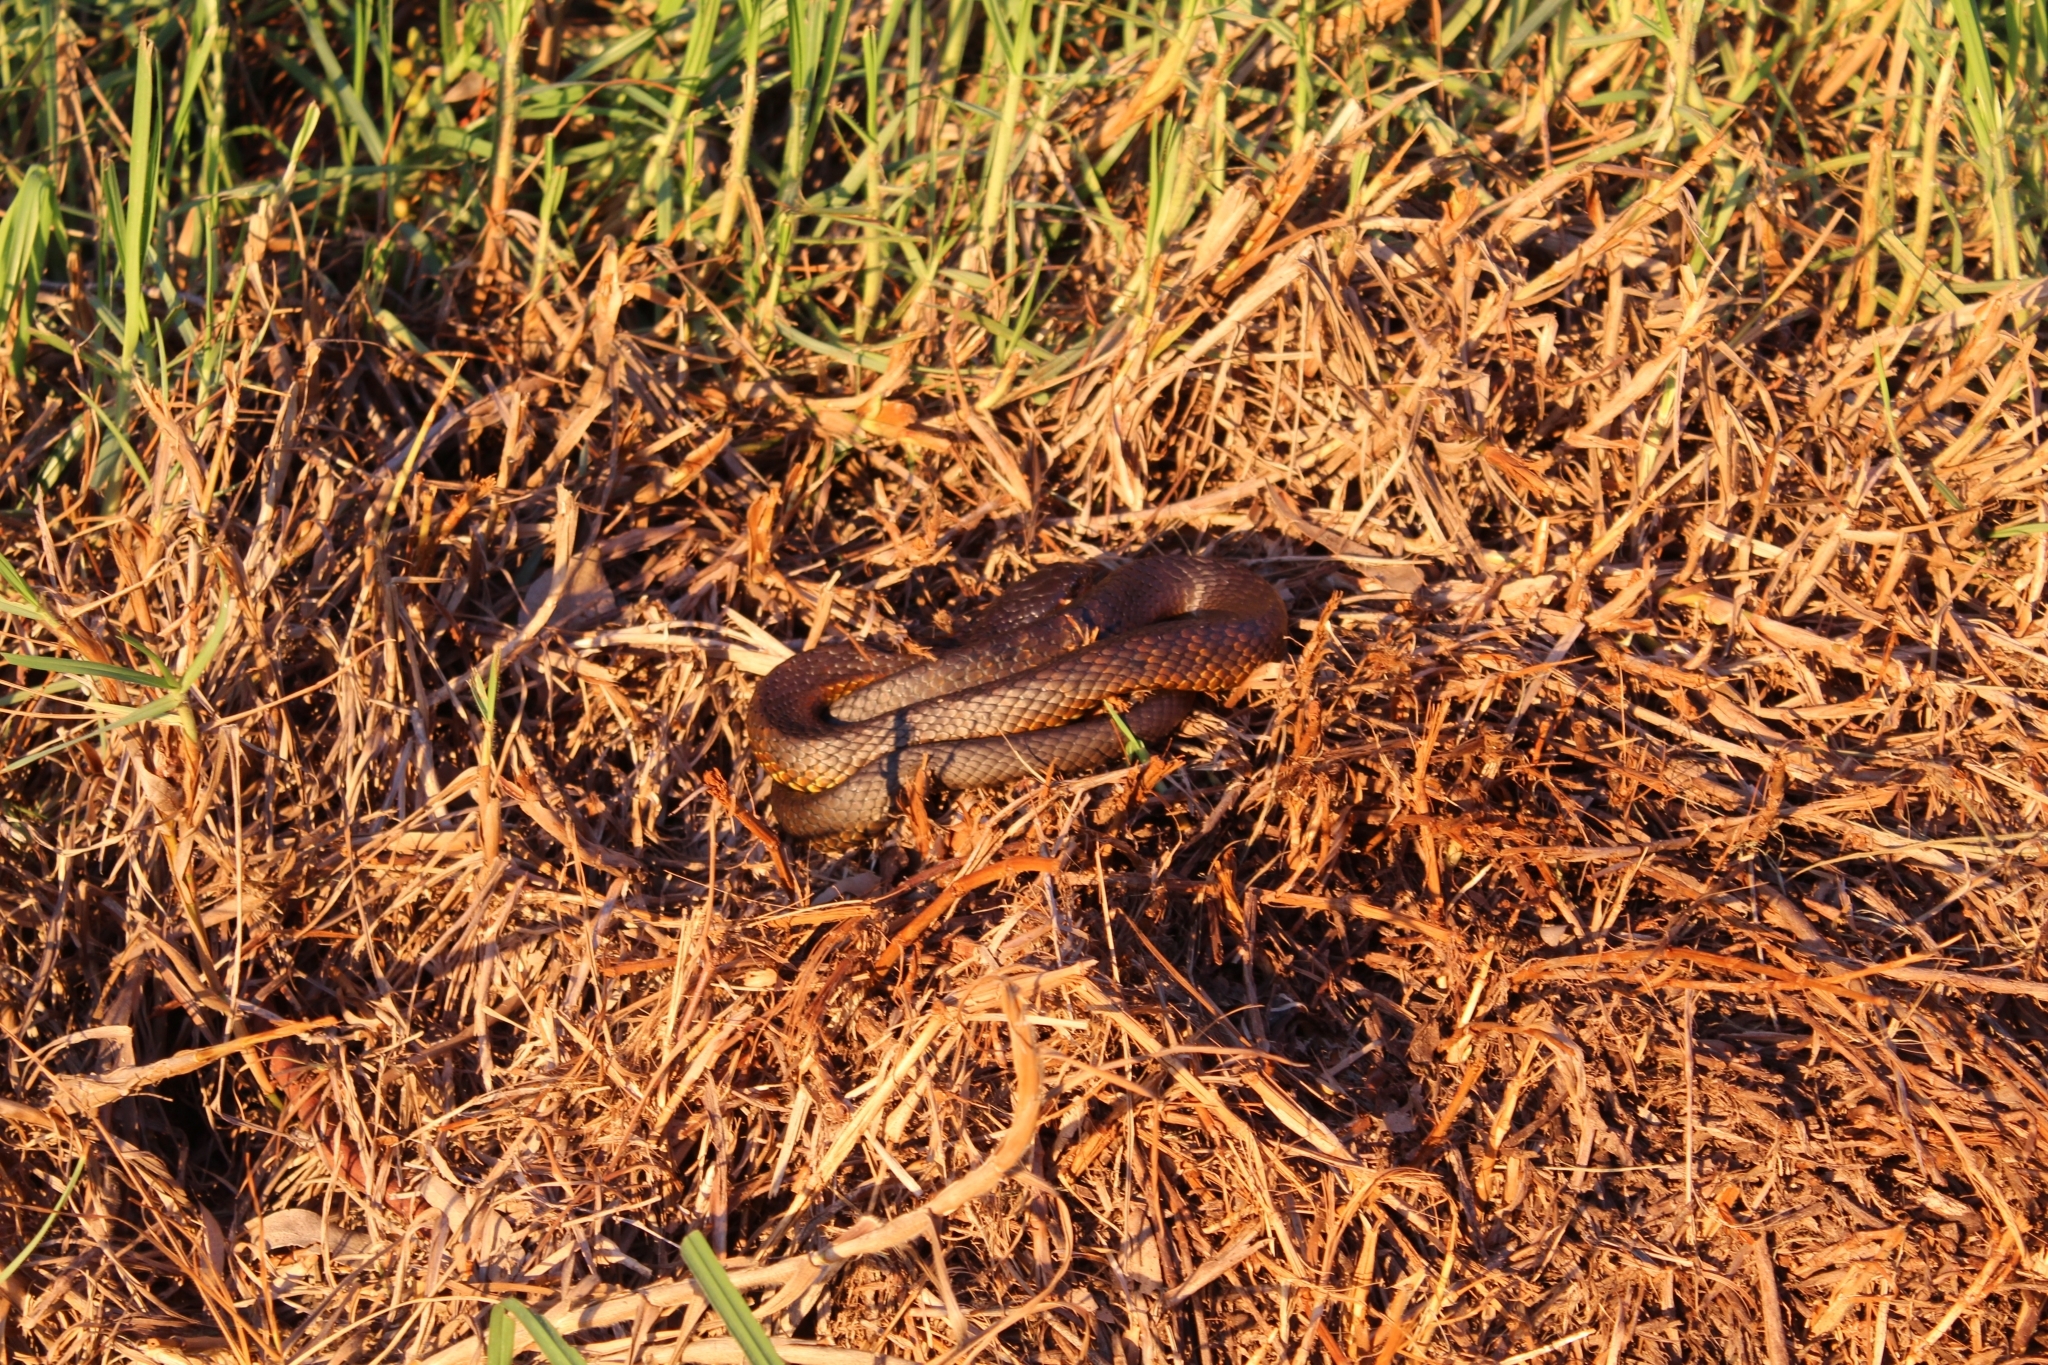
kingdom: Animalia
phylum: Chordata
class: Squamata
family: Elapidae
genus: Notechis
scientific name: Notechis scutatus
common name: Mainland tiger snake
